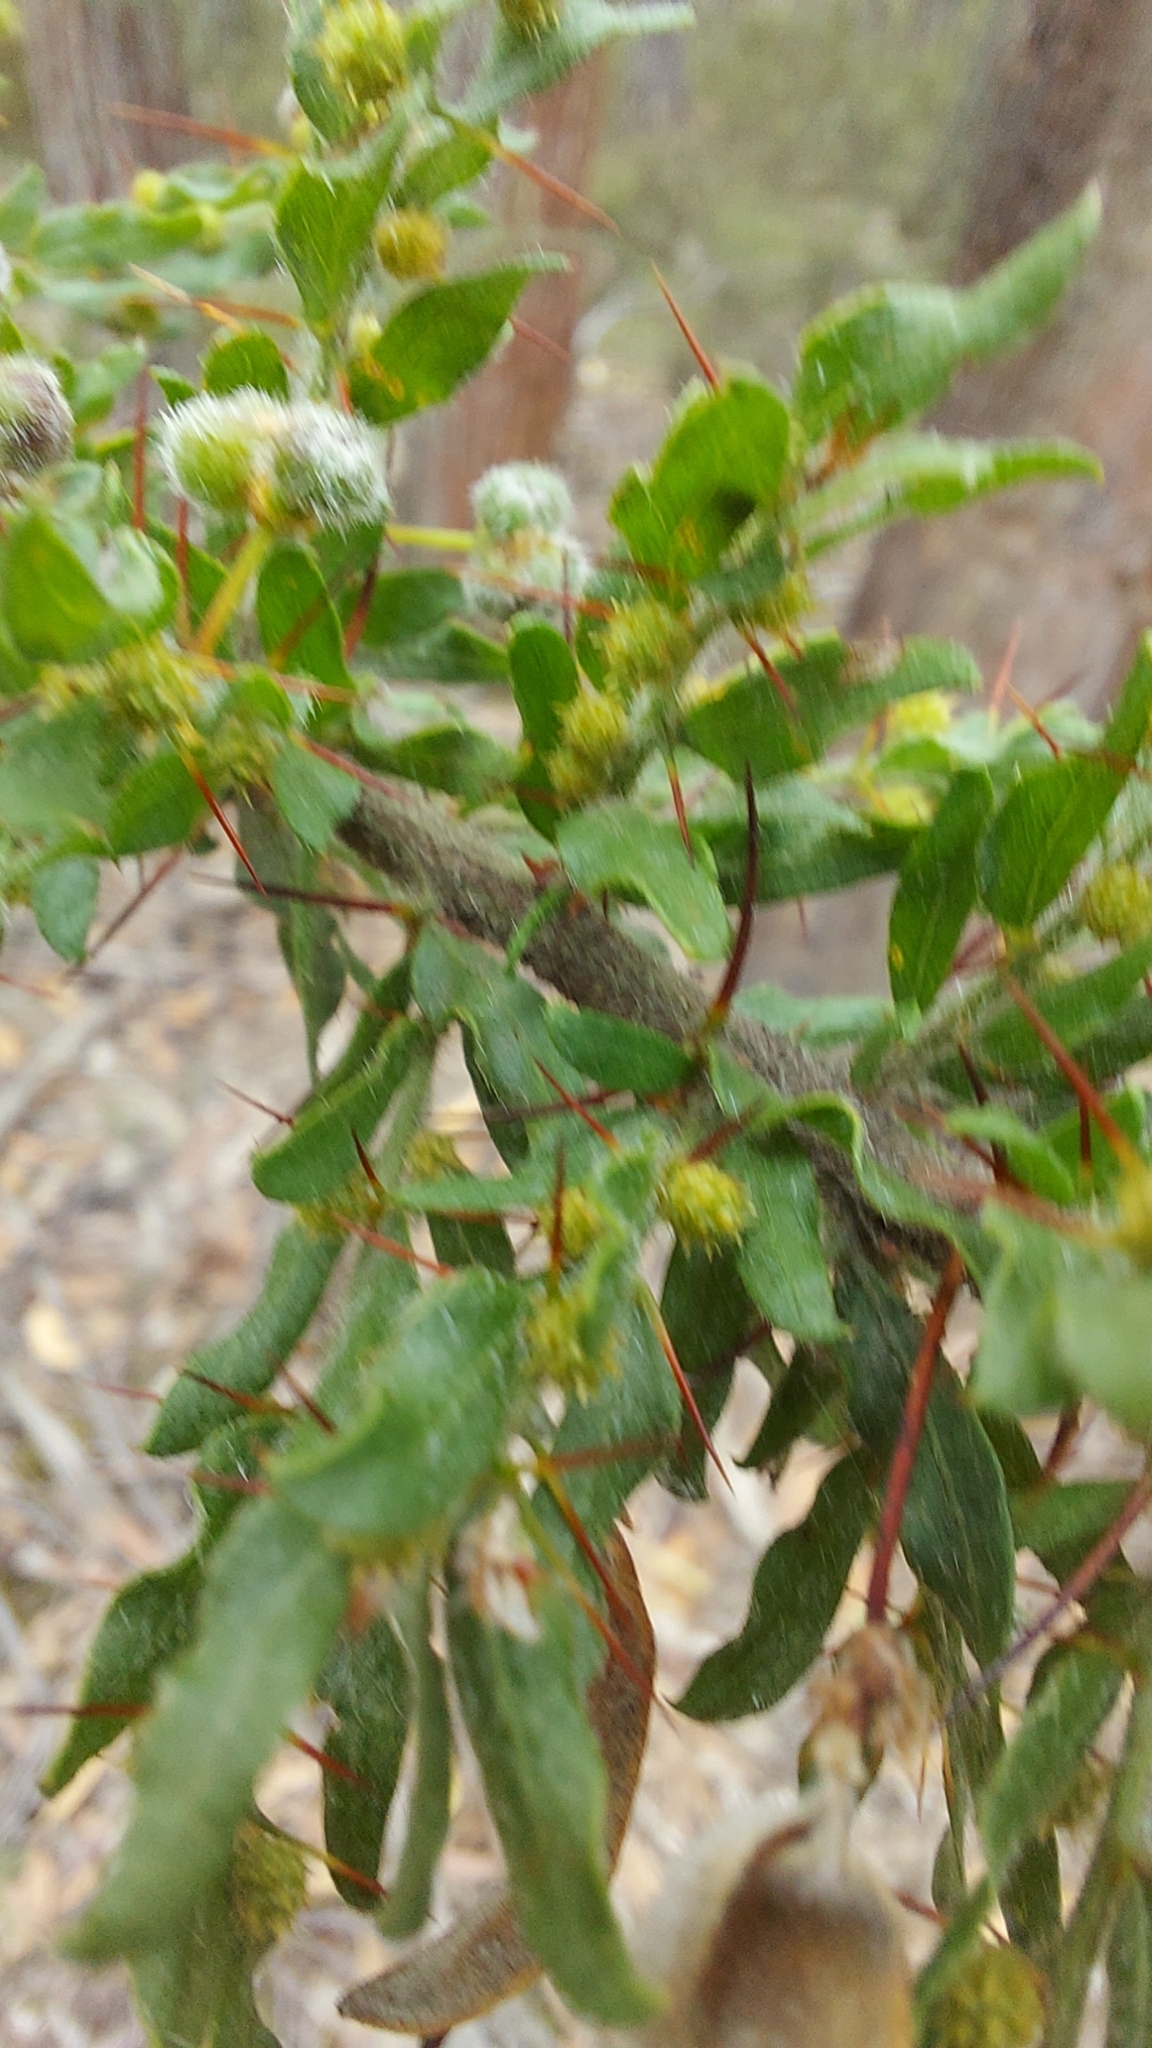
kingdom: Plantae
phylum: Tracheophyta
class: Magnoliopsida
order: Fabales
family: Fabaceae
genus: Acacia
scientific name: Acacia paradoxa
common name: Paradox acacia
